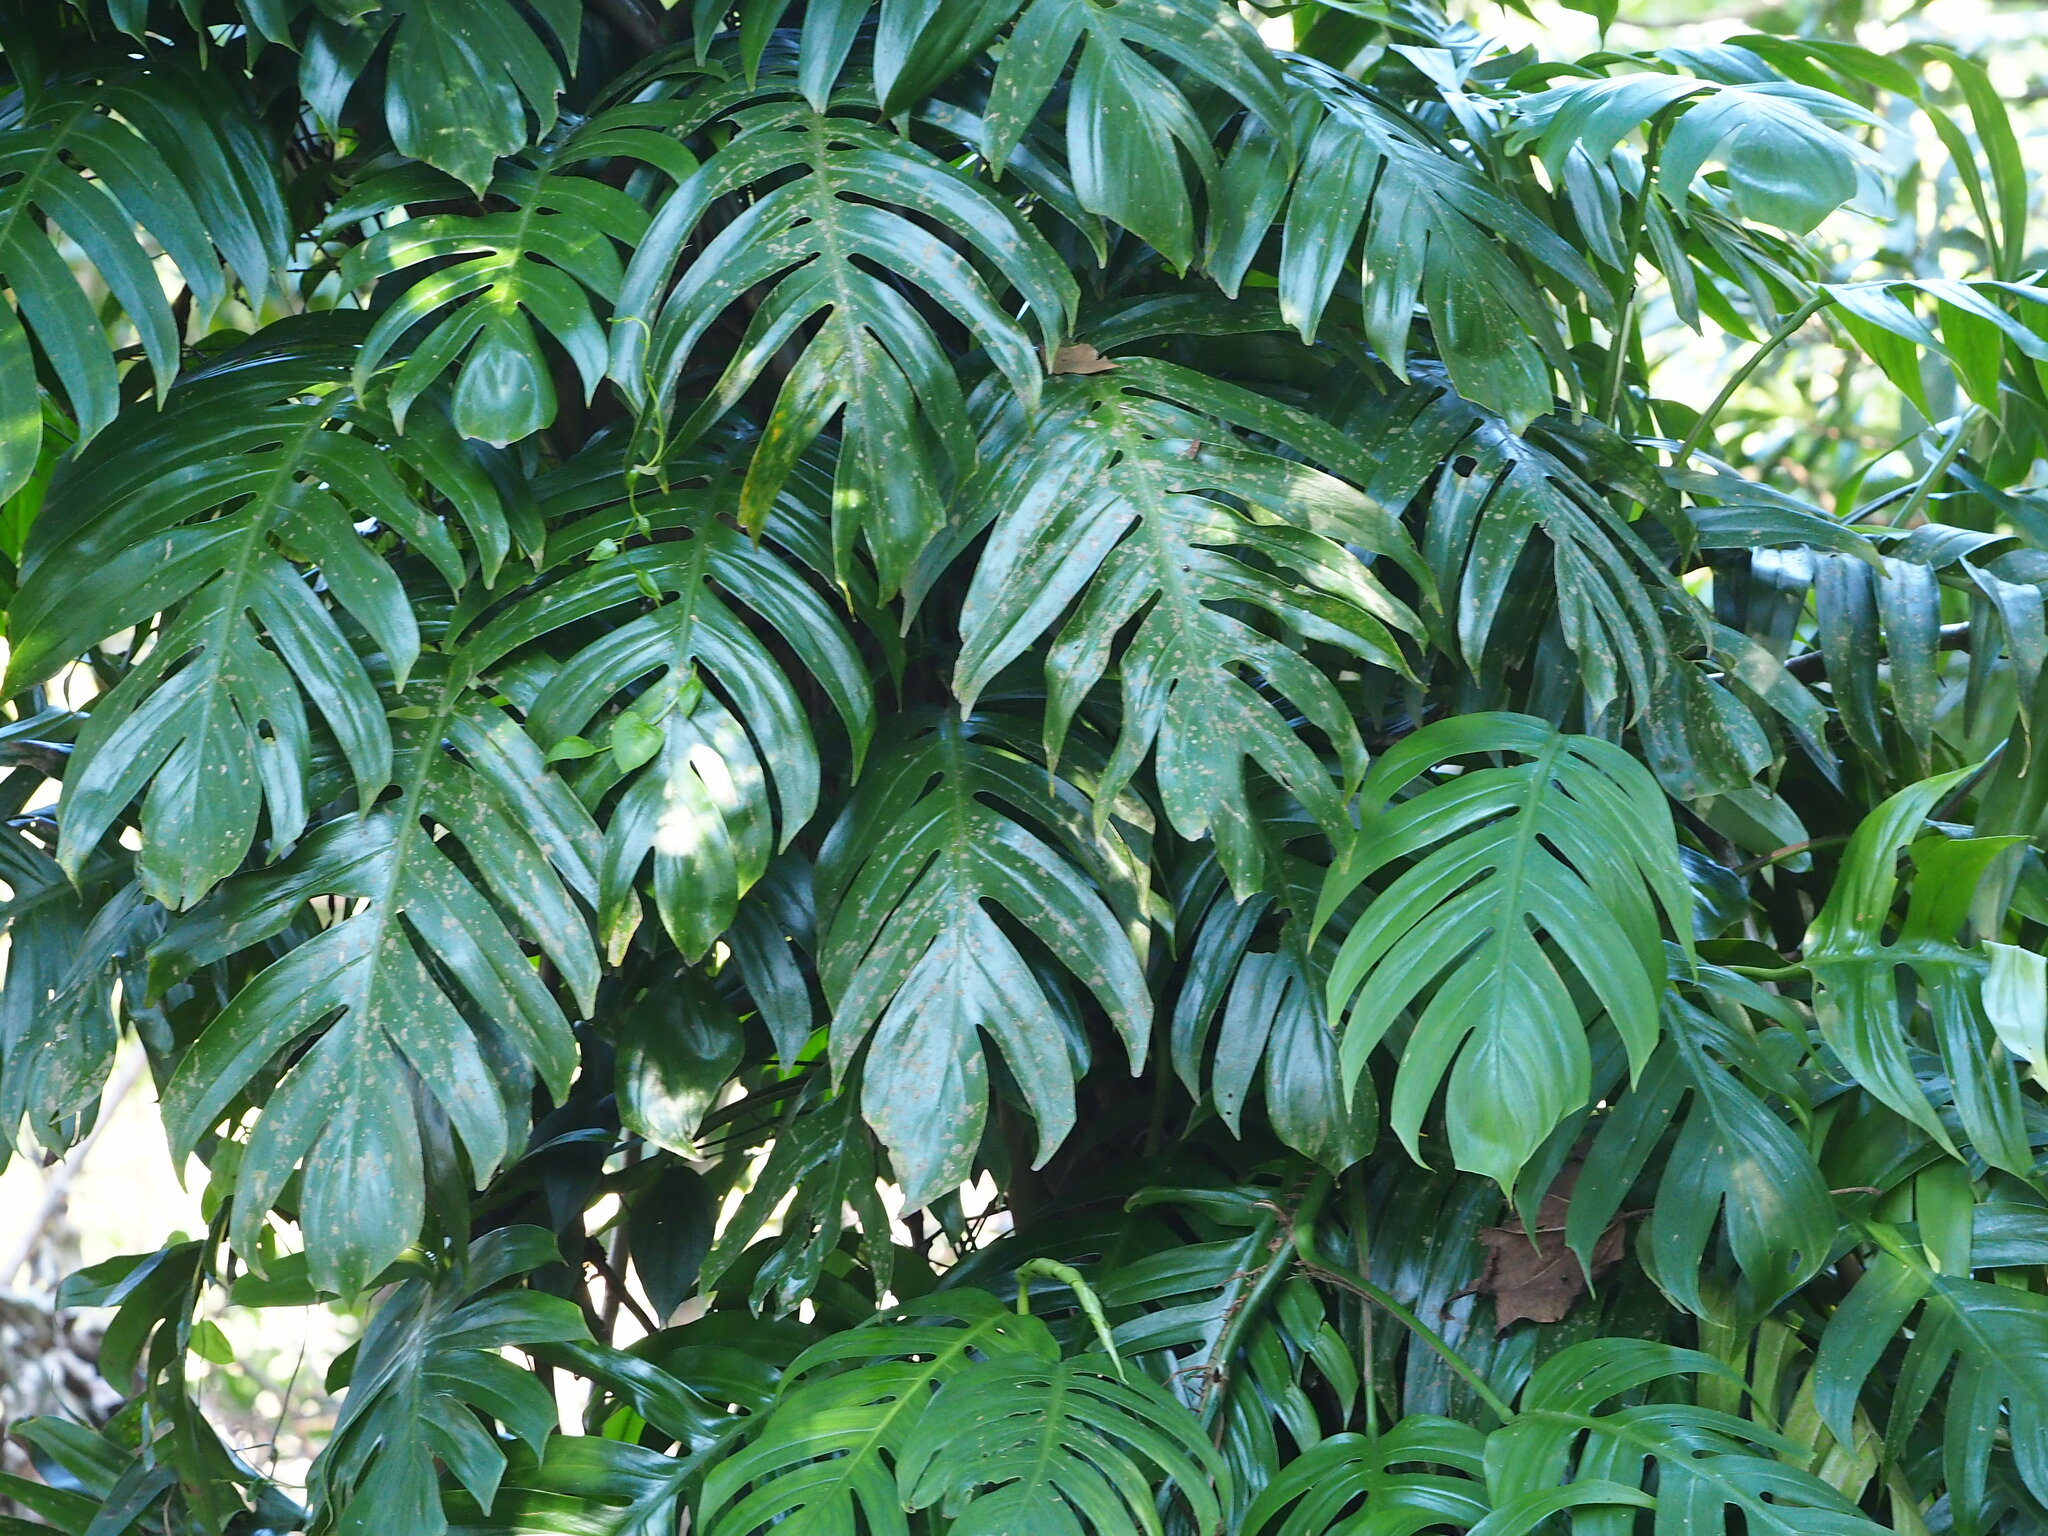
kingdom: Plantae
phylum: Tracheophyta
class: Liliopsida
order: Alismatales
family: Araceae
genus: Epipremnum
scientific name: Epipremnum pinnatum
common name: Centipede tongavine
